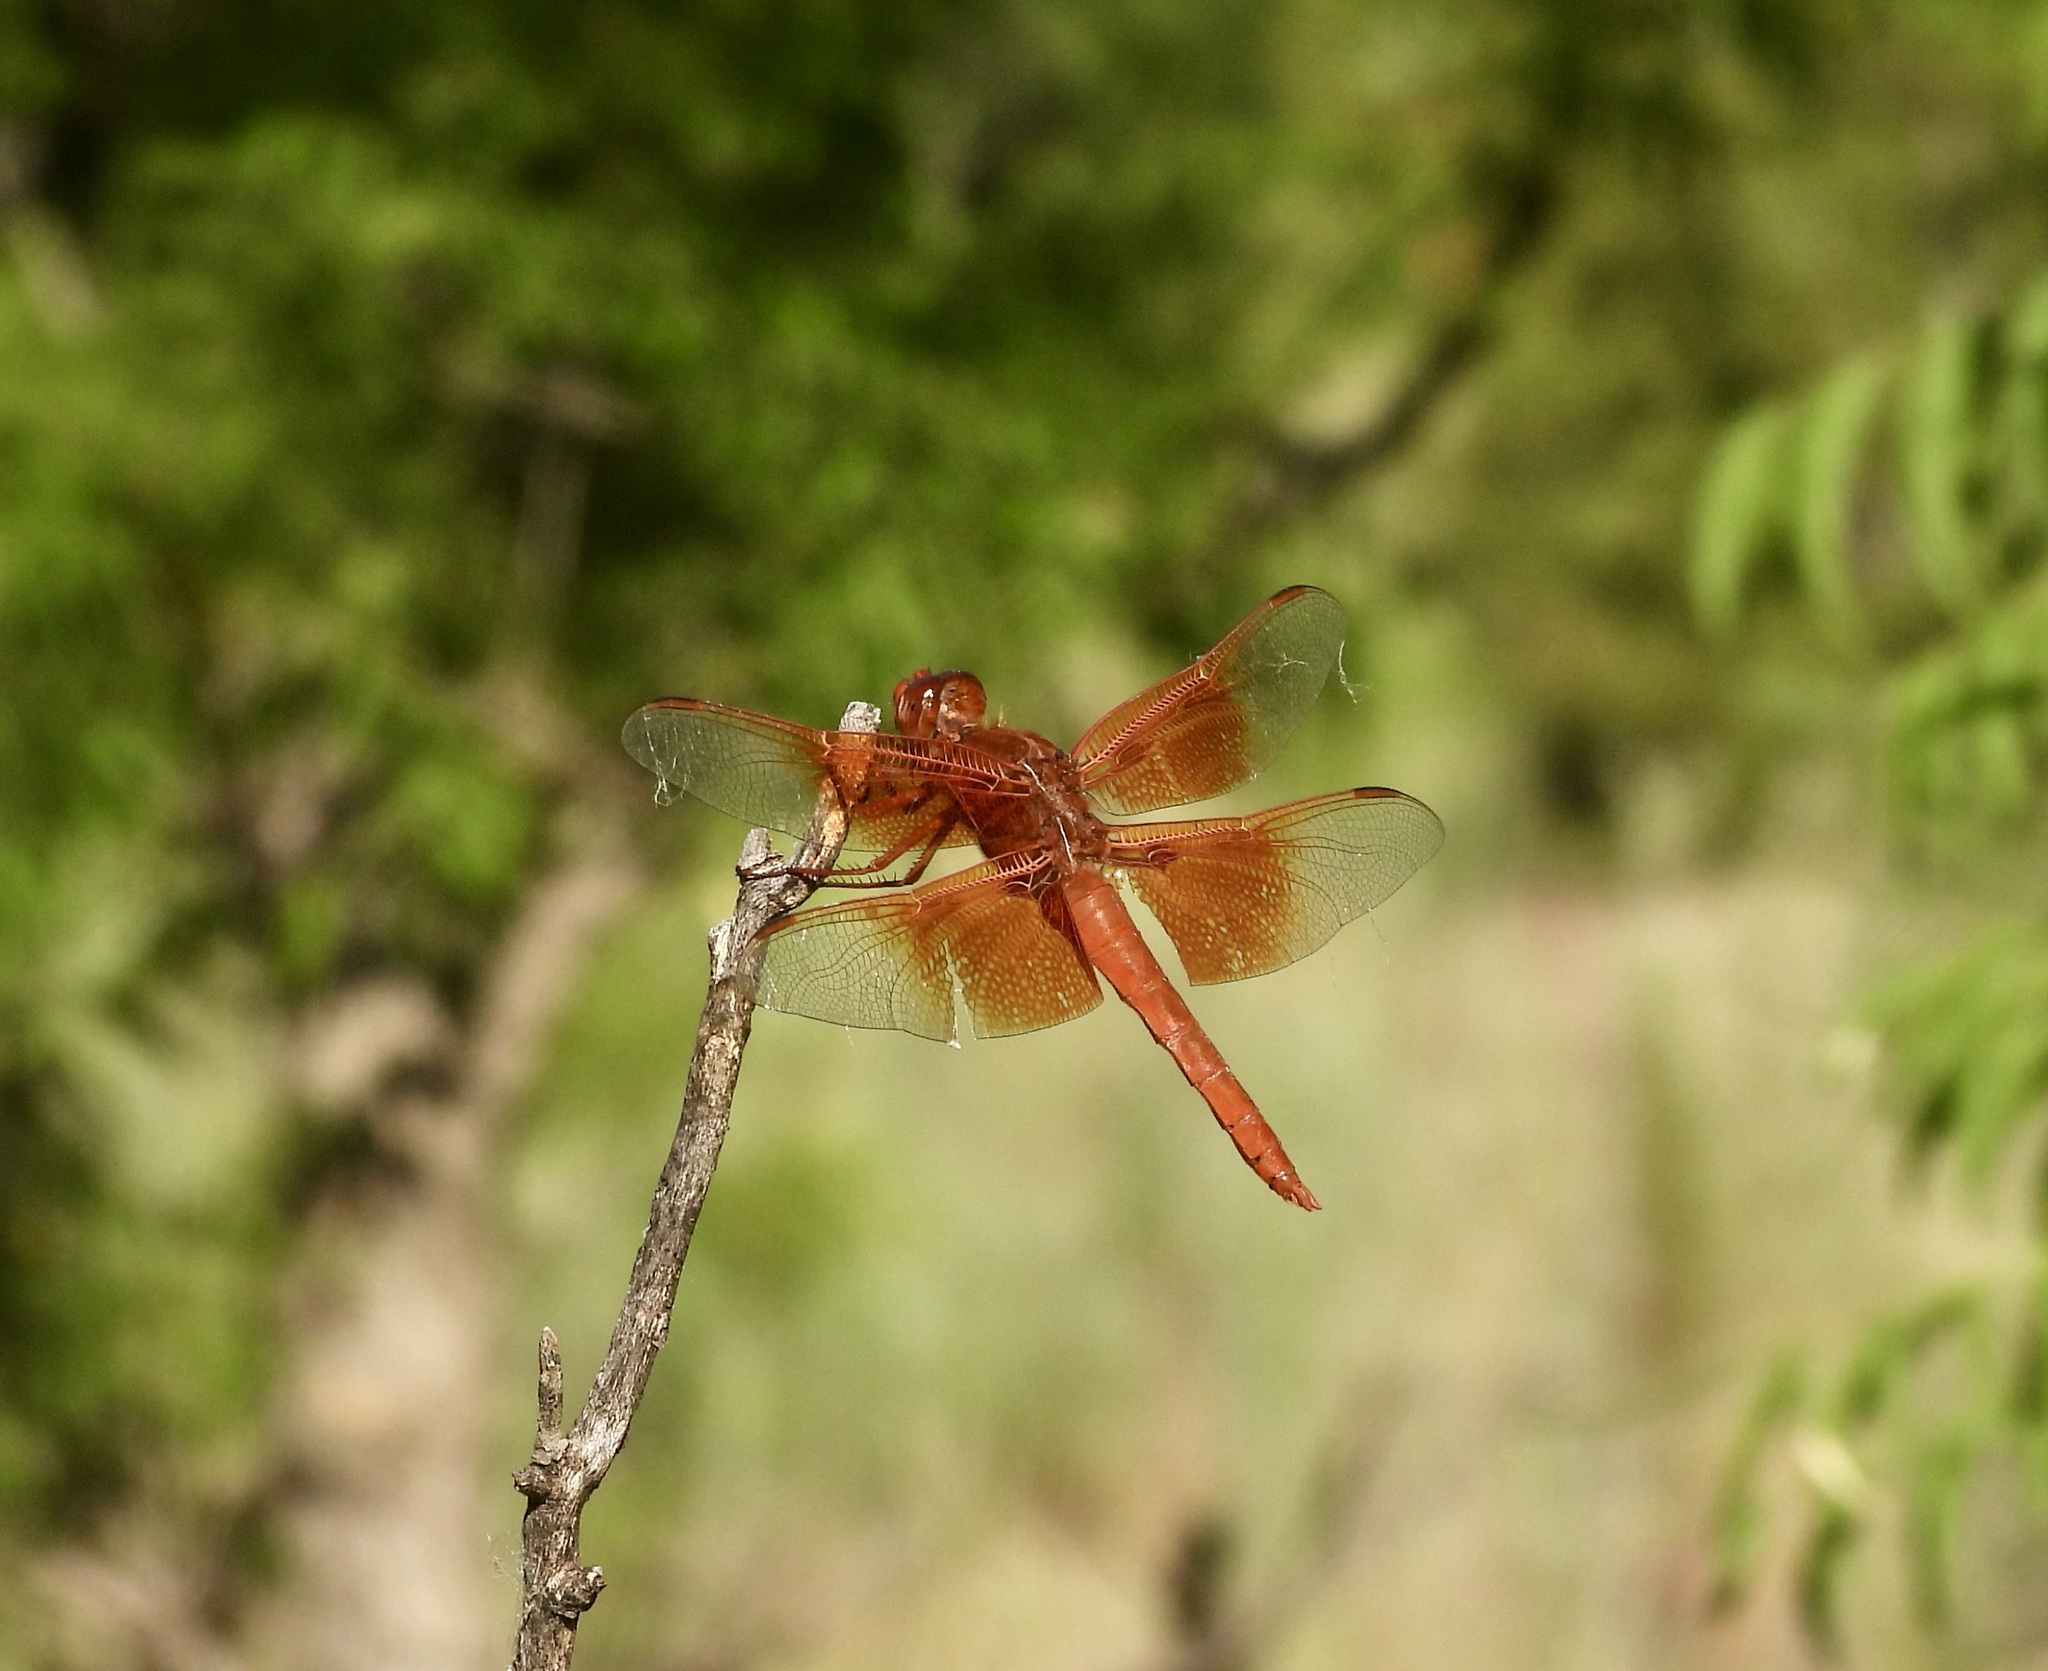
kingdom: Animalia
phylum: Arthropoda
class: Insecta
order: Odonata
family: Libellulidae
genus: Libellula
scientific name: Libellula saturata
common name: Flame skimmer
